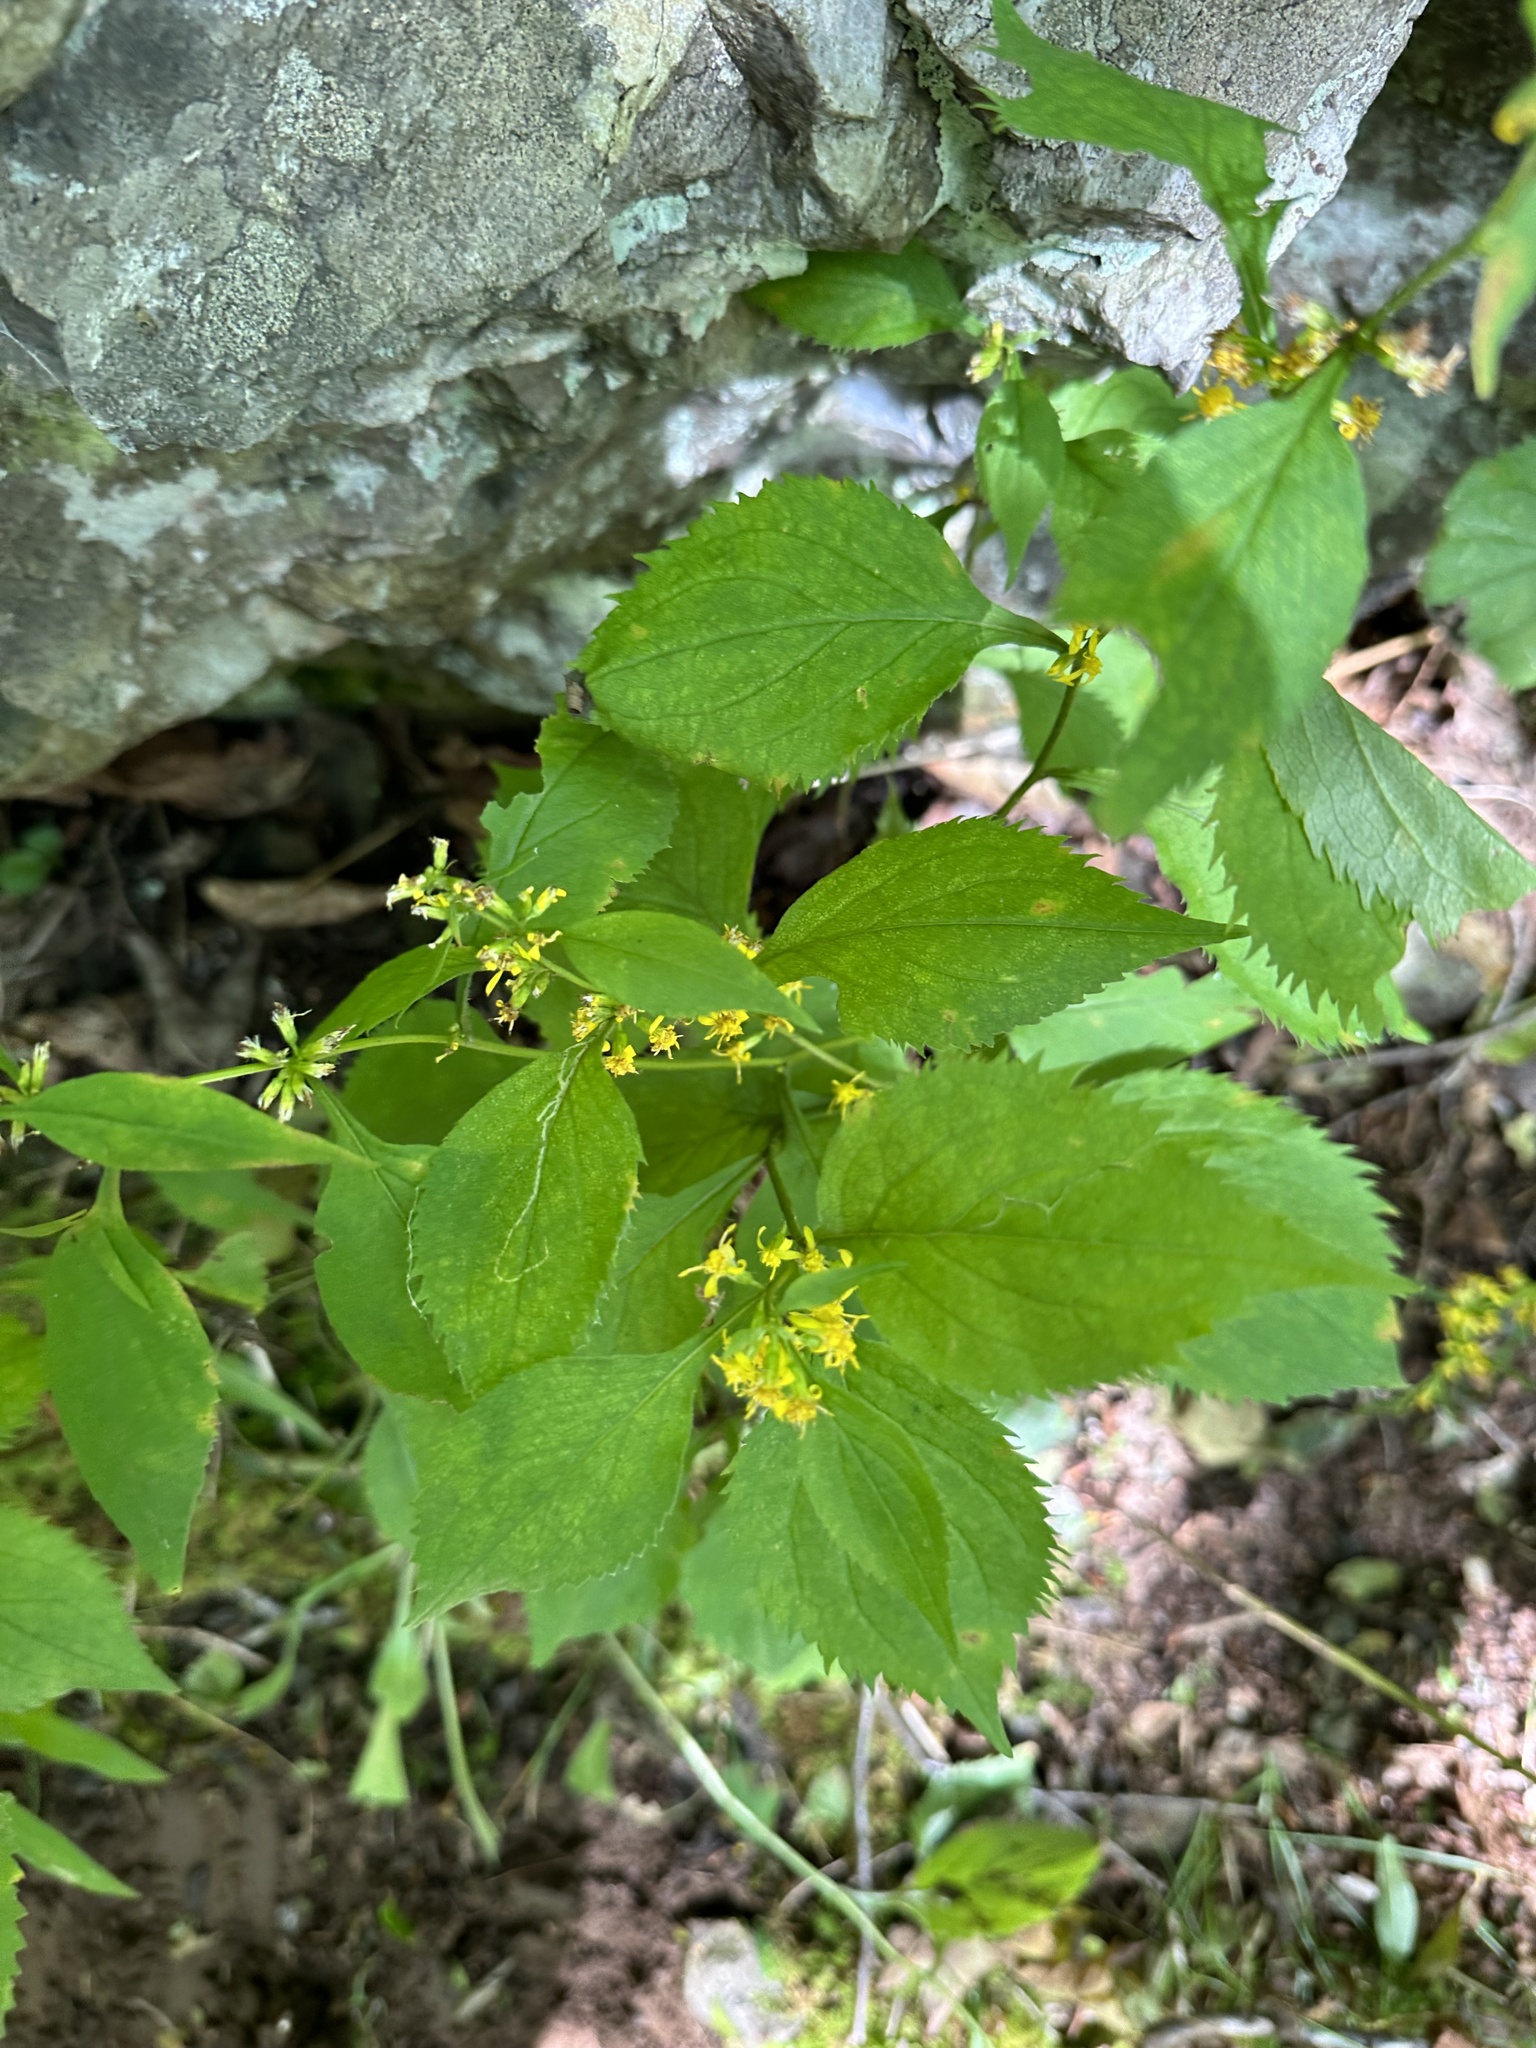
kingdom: Plantae
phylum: Tracheophyta
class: Magnoliopsida
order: Asterales
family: Asteraceae
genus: Solidago
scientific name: Solidago flexicaulis
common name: Zig-zag goldenrod
